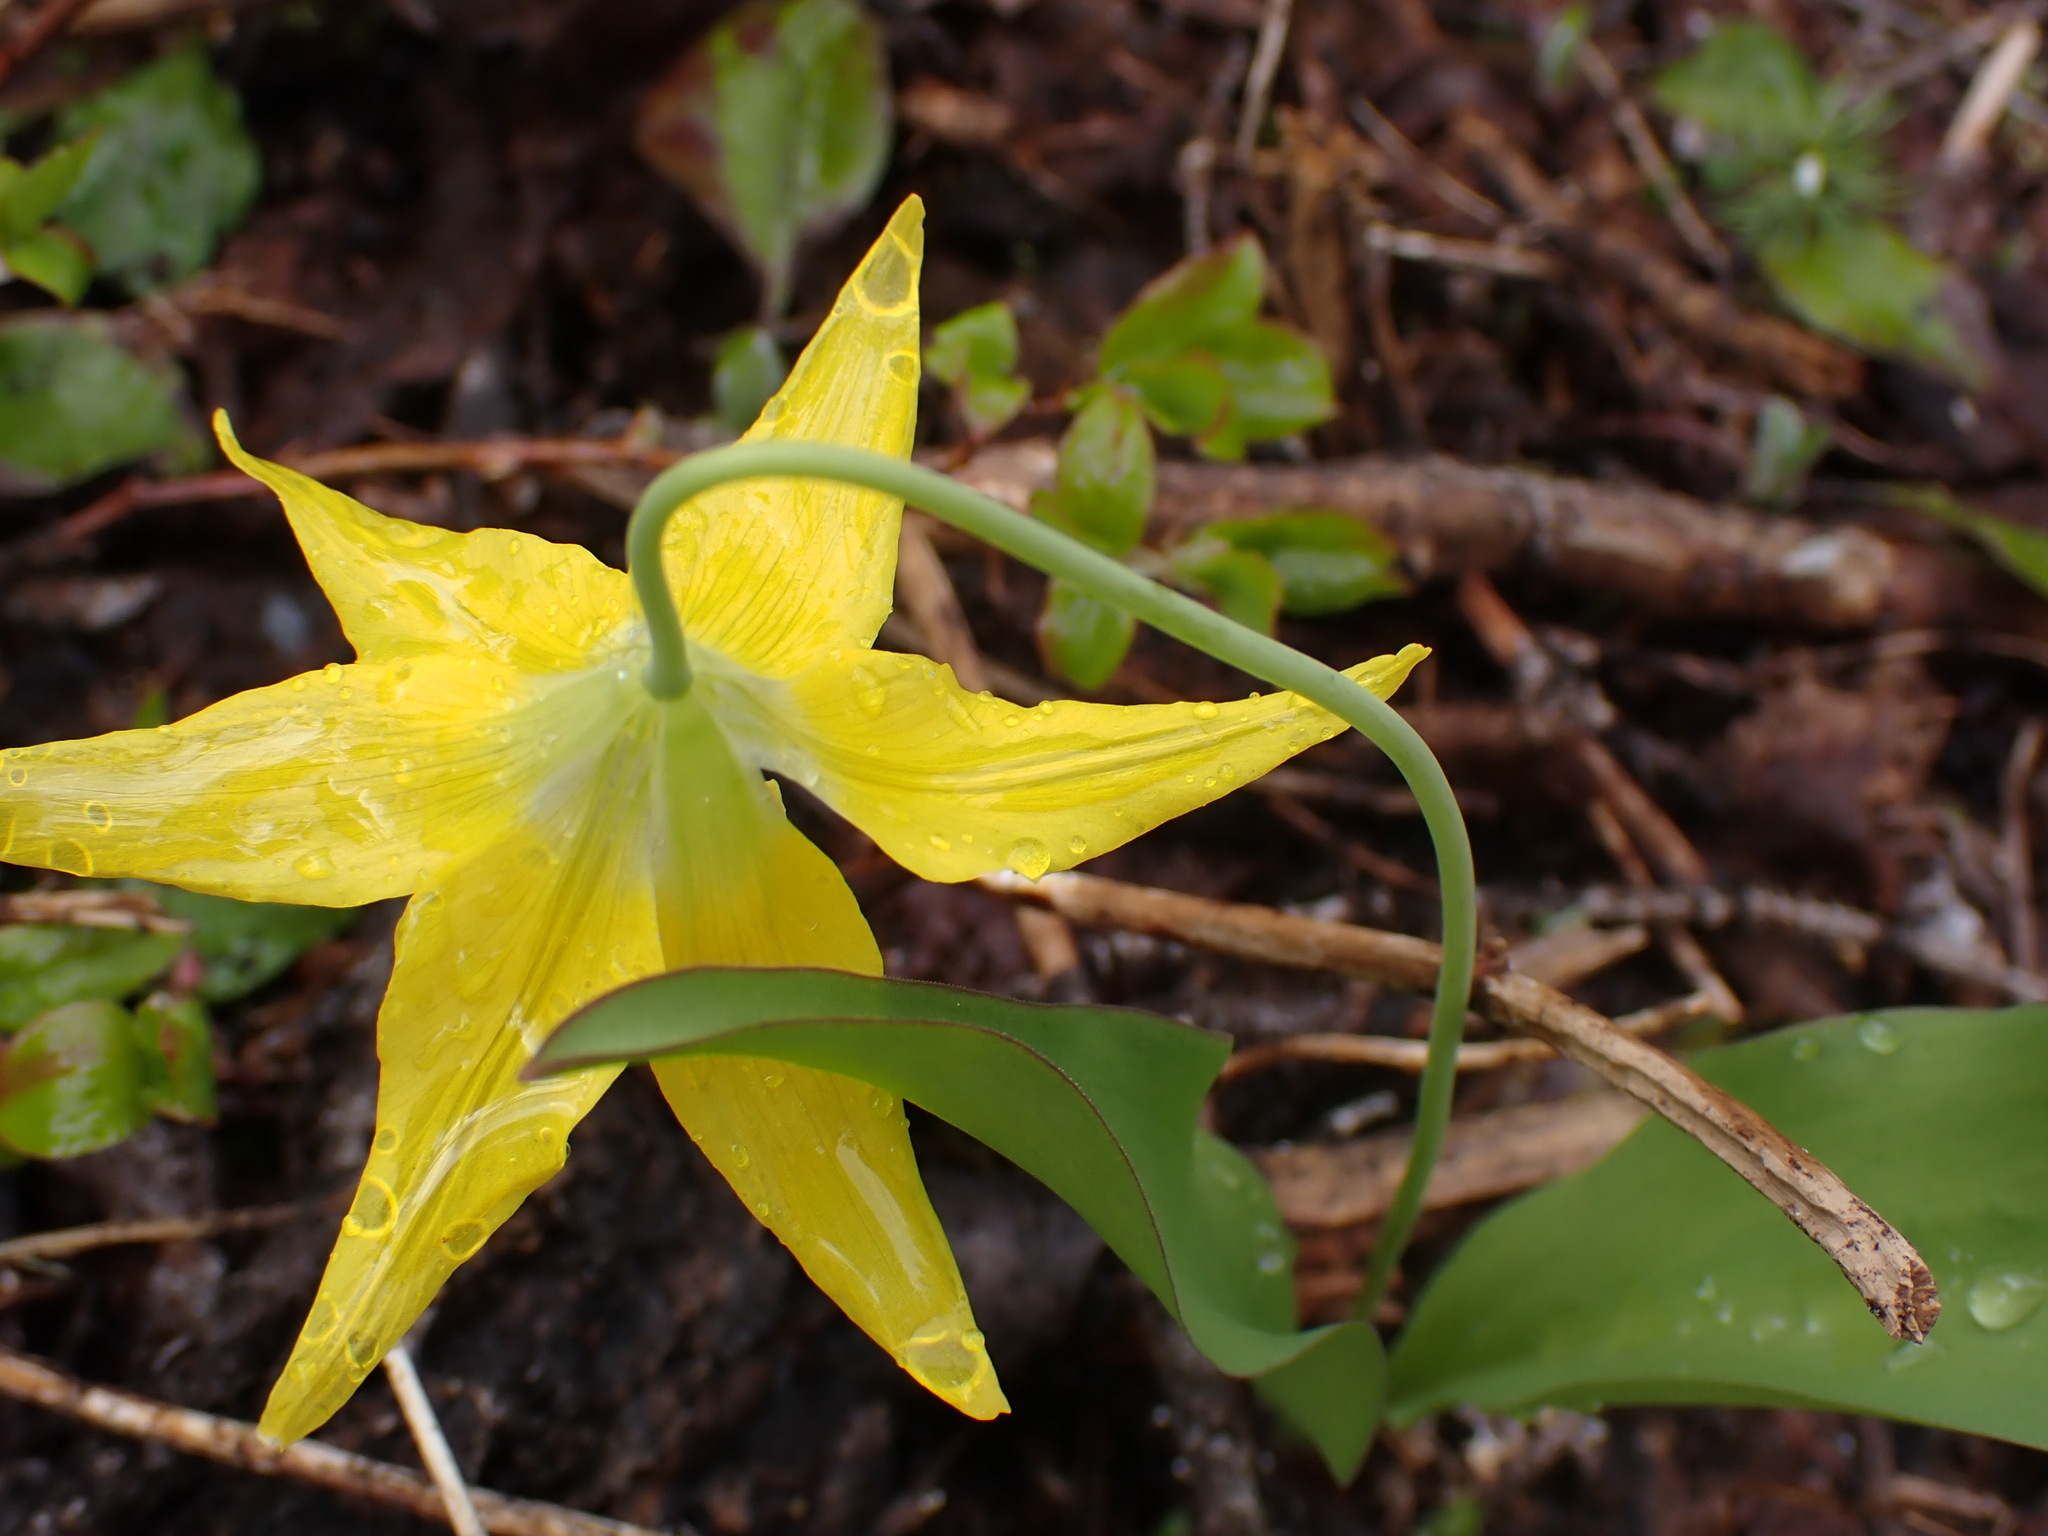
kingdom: Plantae
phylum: Tracheophyta
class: Liliopsida
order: Liliales
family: Liliaceae
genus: Erythronium
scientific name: Erythronium grandiflorum
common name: Avalanche-lily
